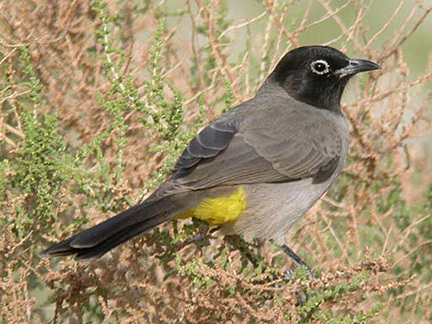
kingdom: Animalia
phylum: Chordata
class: Aves
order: Passeriformes
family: Pycnonotidae
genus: Pycnonotus
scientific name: Pycnonotus xanthopygos
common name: White-spectacled bulbul
